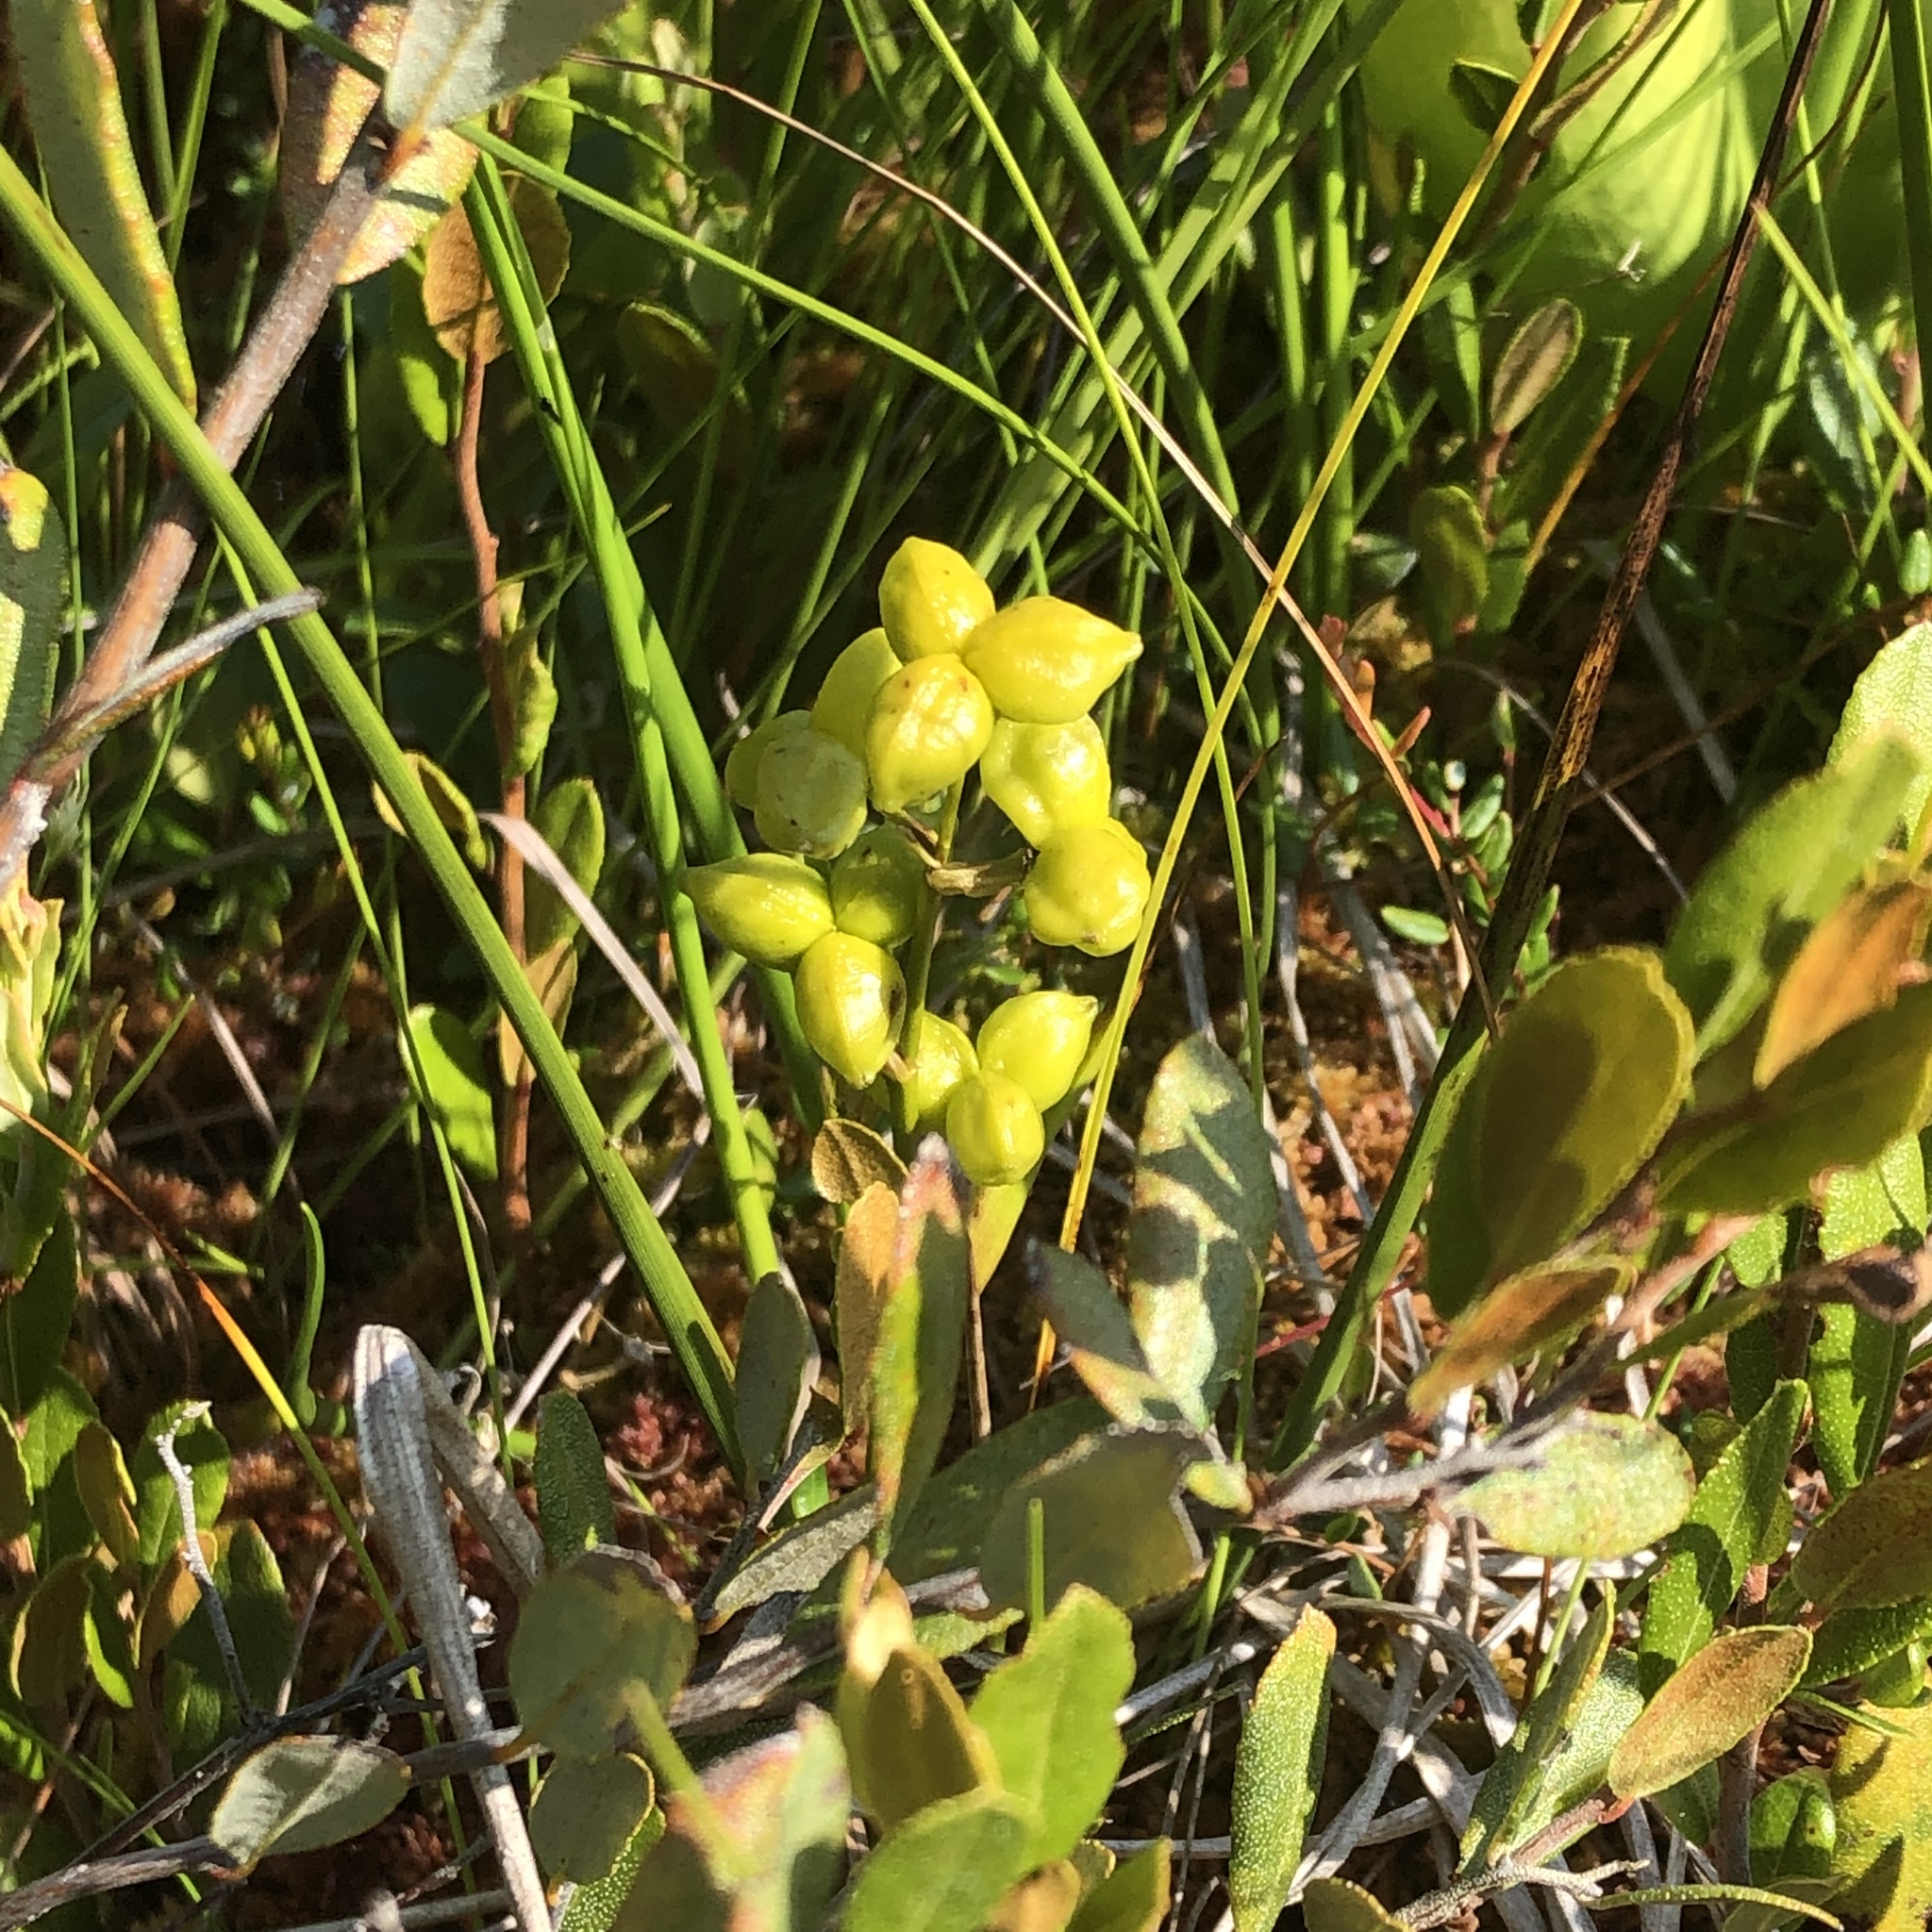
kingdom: Plantae
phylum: Tracheophyta
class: Liliopsida
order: Alismatales
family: Scheuchzeriaceae
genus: Scheuchzeria
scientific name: Scheuchzeria palustris
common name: Rannoch-rush
